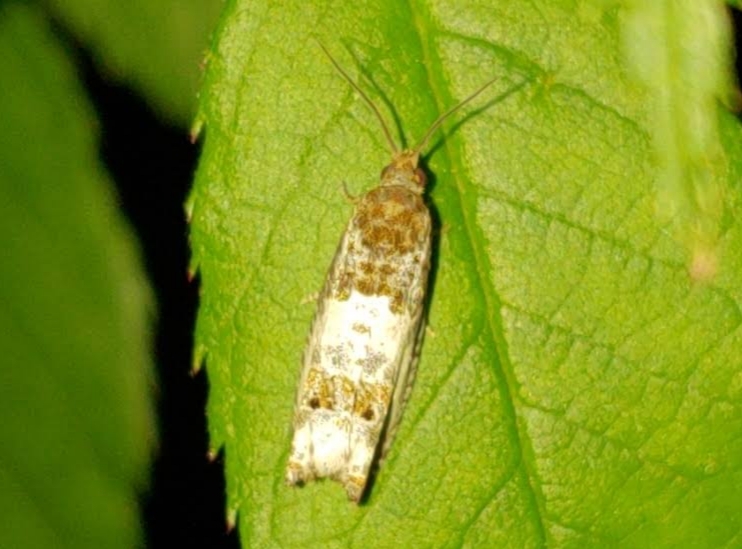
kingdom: Animalia
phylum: Arthropoda
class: Insecta
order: Lepidoptera
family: Tortricidae
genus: Notocelia
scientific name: Notocelia rosaecolana
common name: Common rose bell
